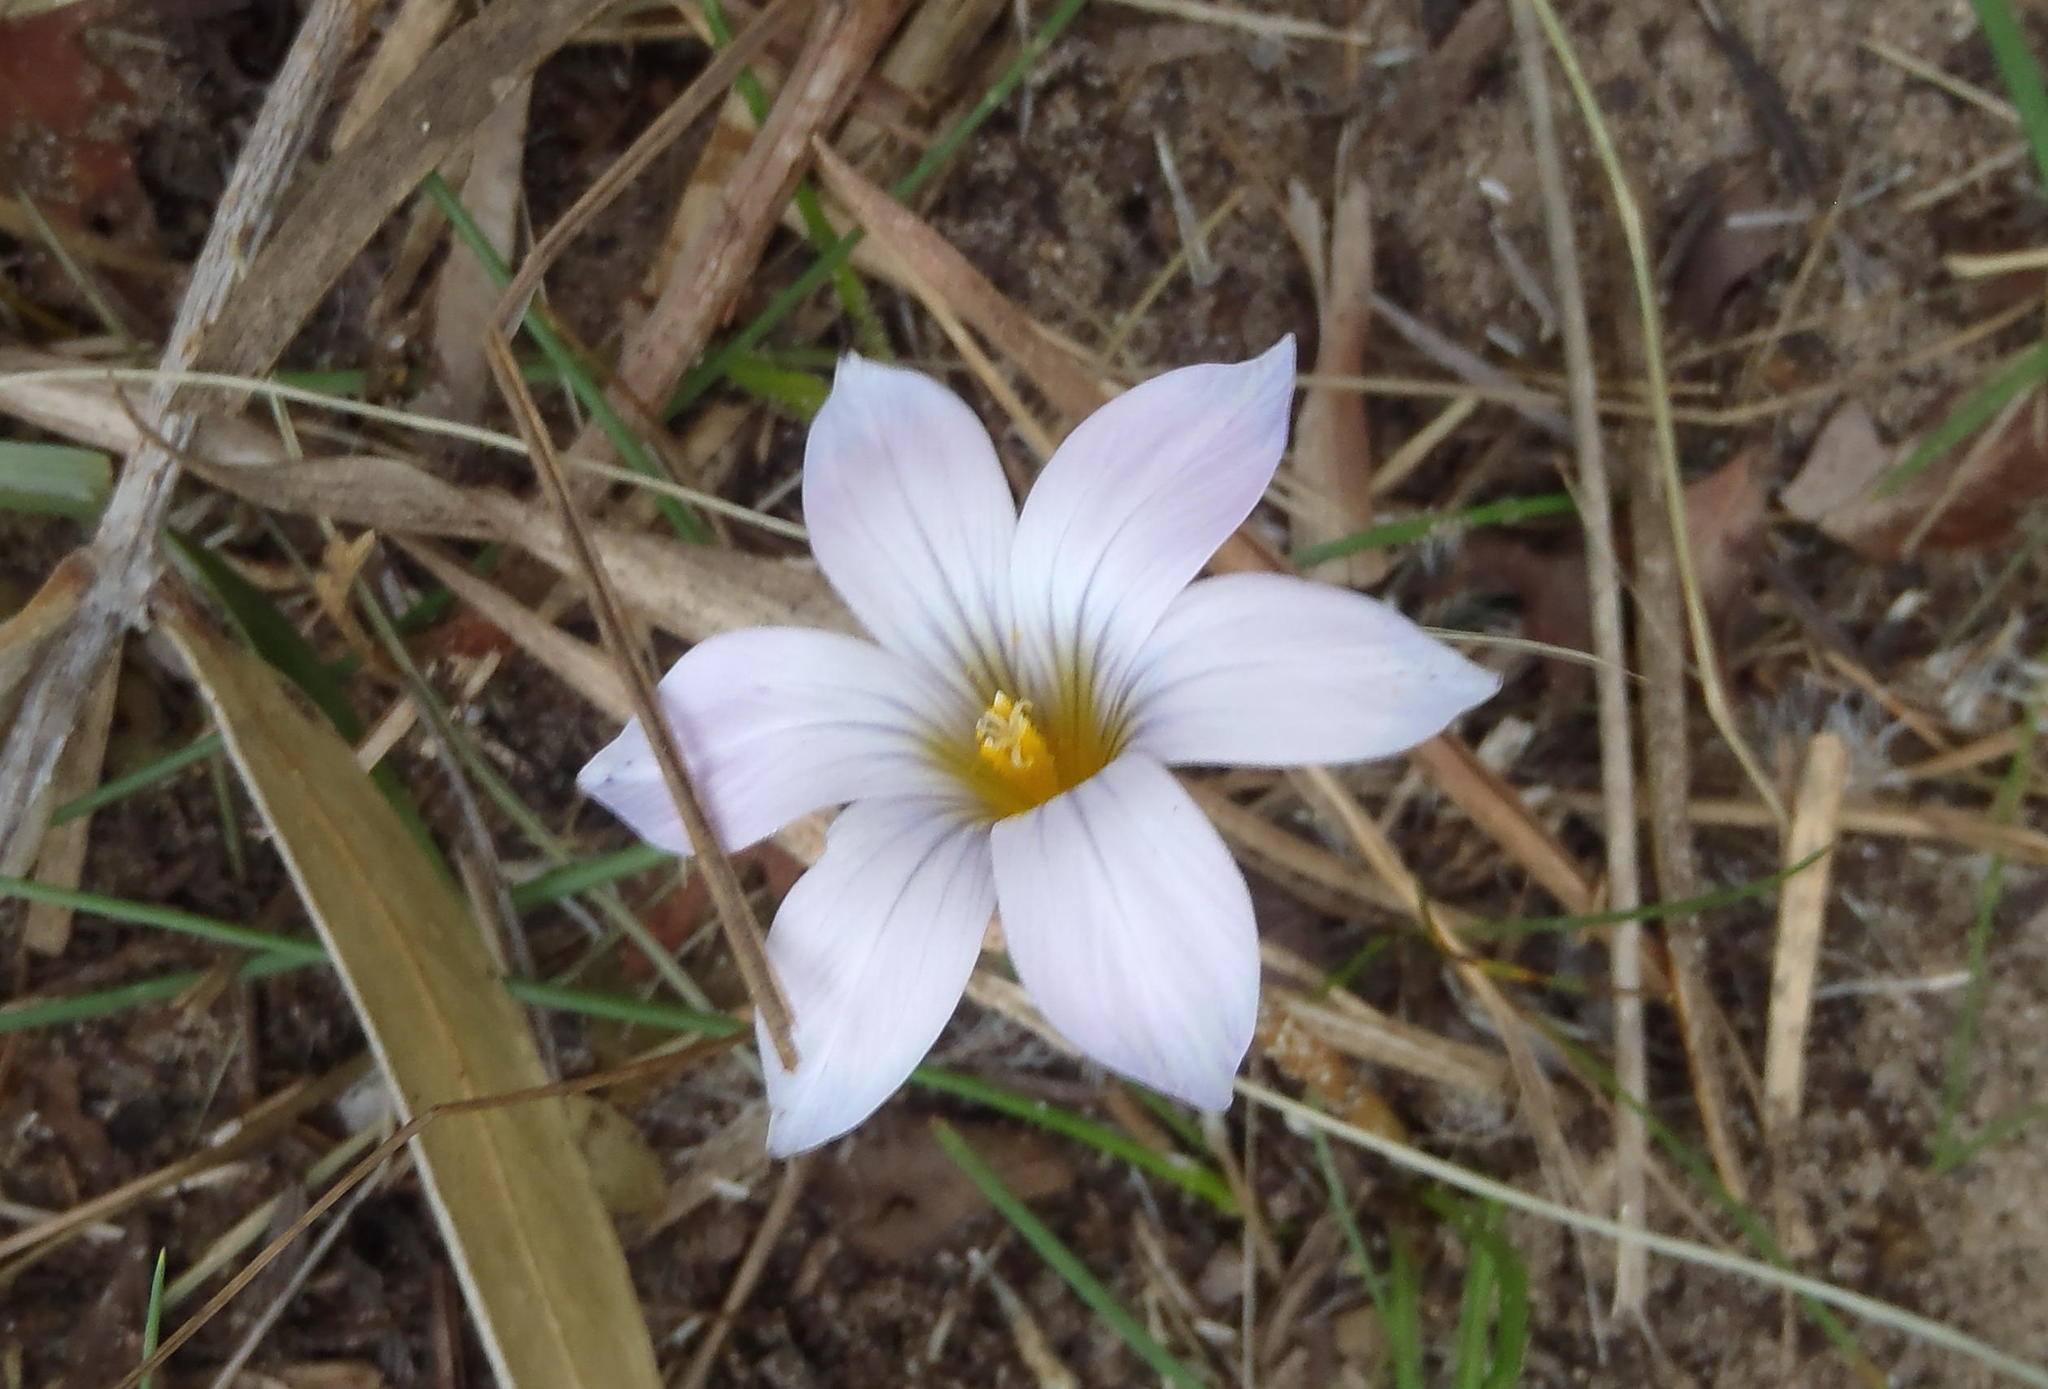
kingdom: Plantae
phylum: Tracheophyta
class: Liliopsida
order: Asparagales
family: Iridaceae
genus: Romulea
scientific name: Romulea rosea
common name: Oniongrass
